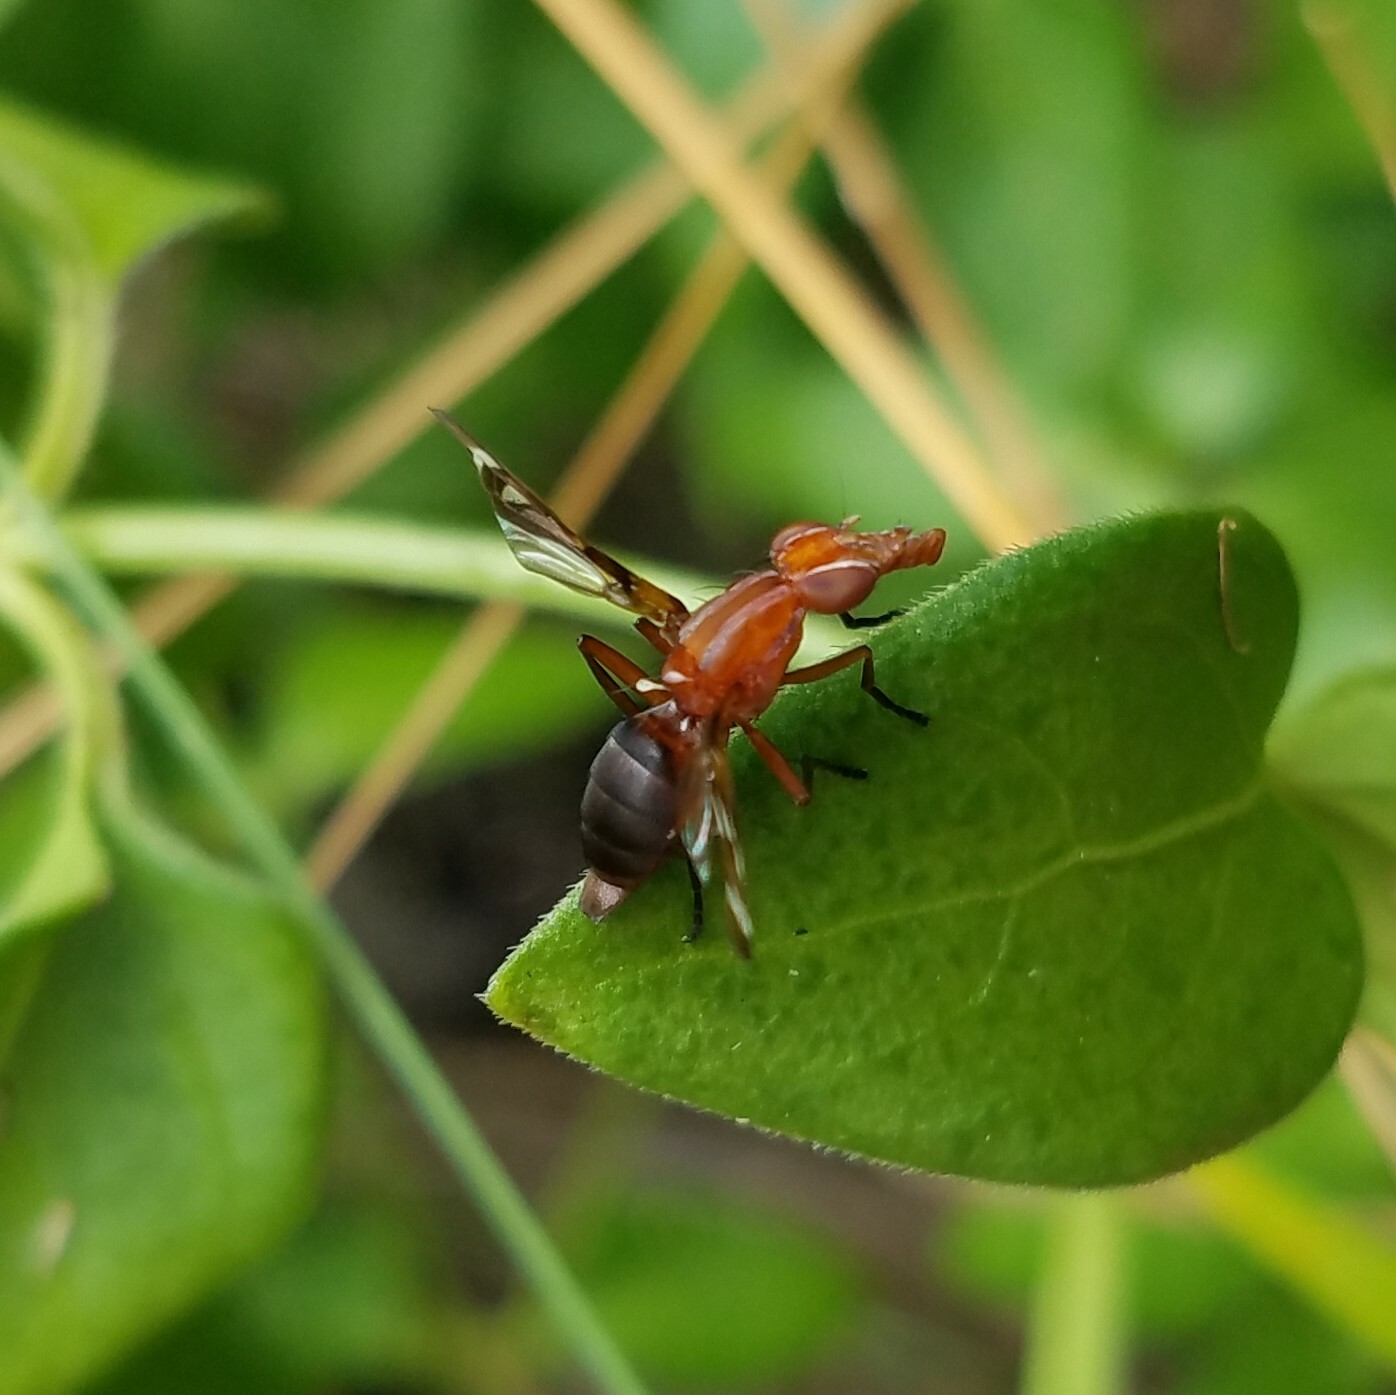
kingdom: Animalia
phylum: Arthropoda
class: Insecta
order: Diptera
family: Ulidiidae
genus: Tritoxa
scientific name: Tritoxa incurva
